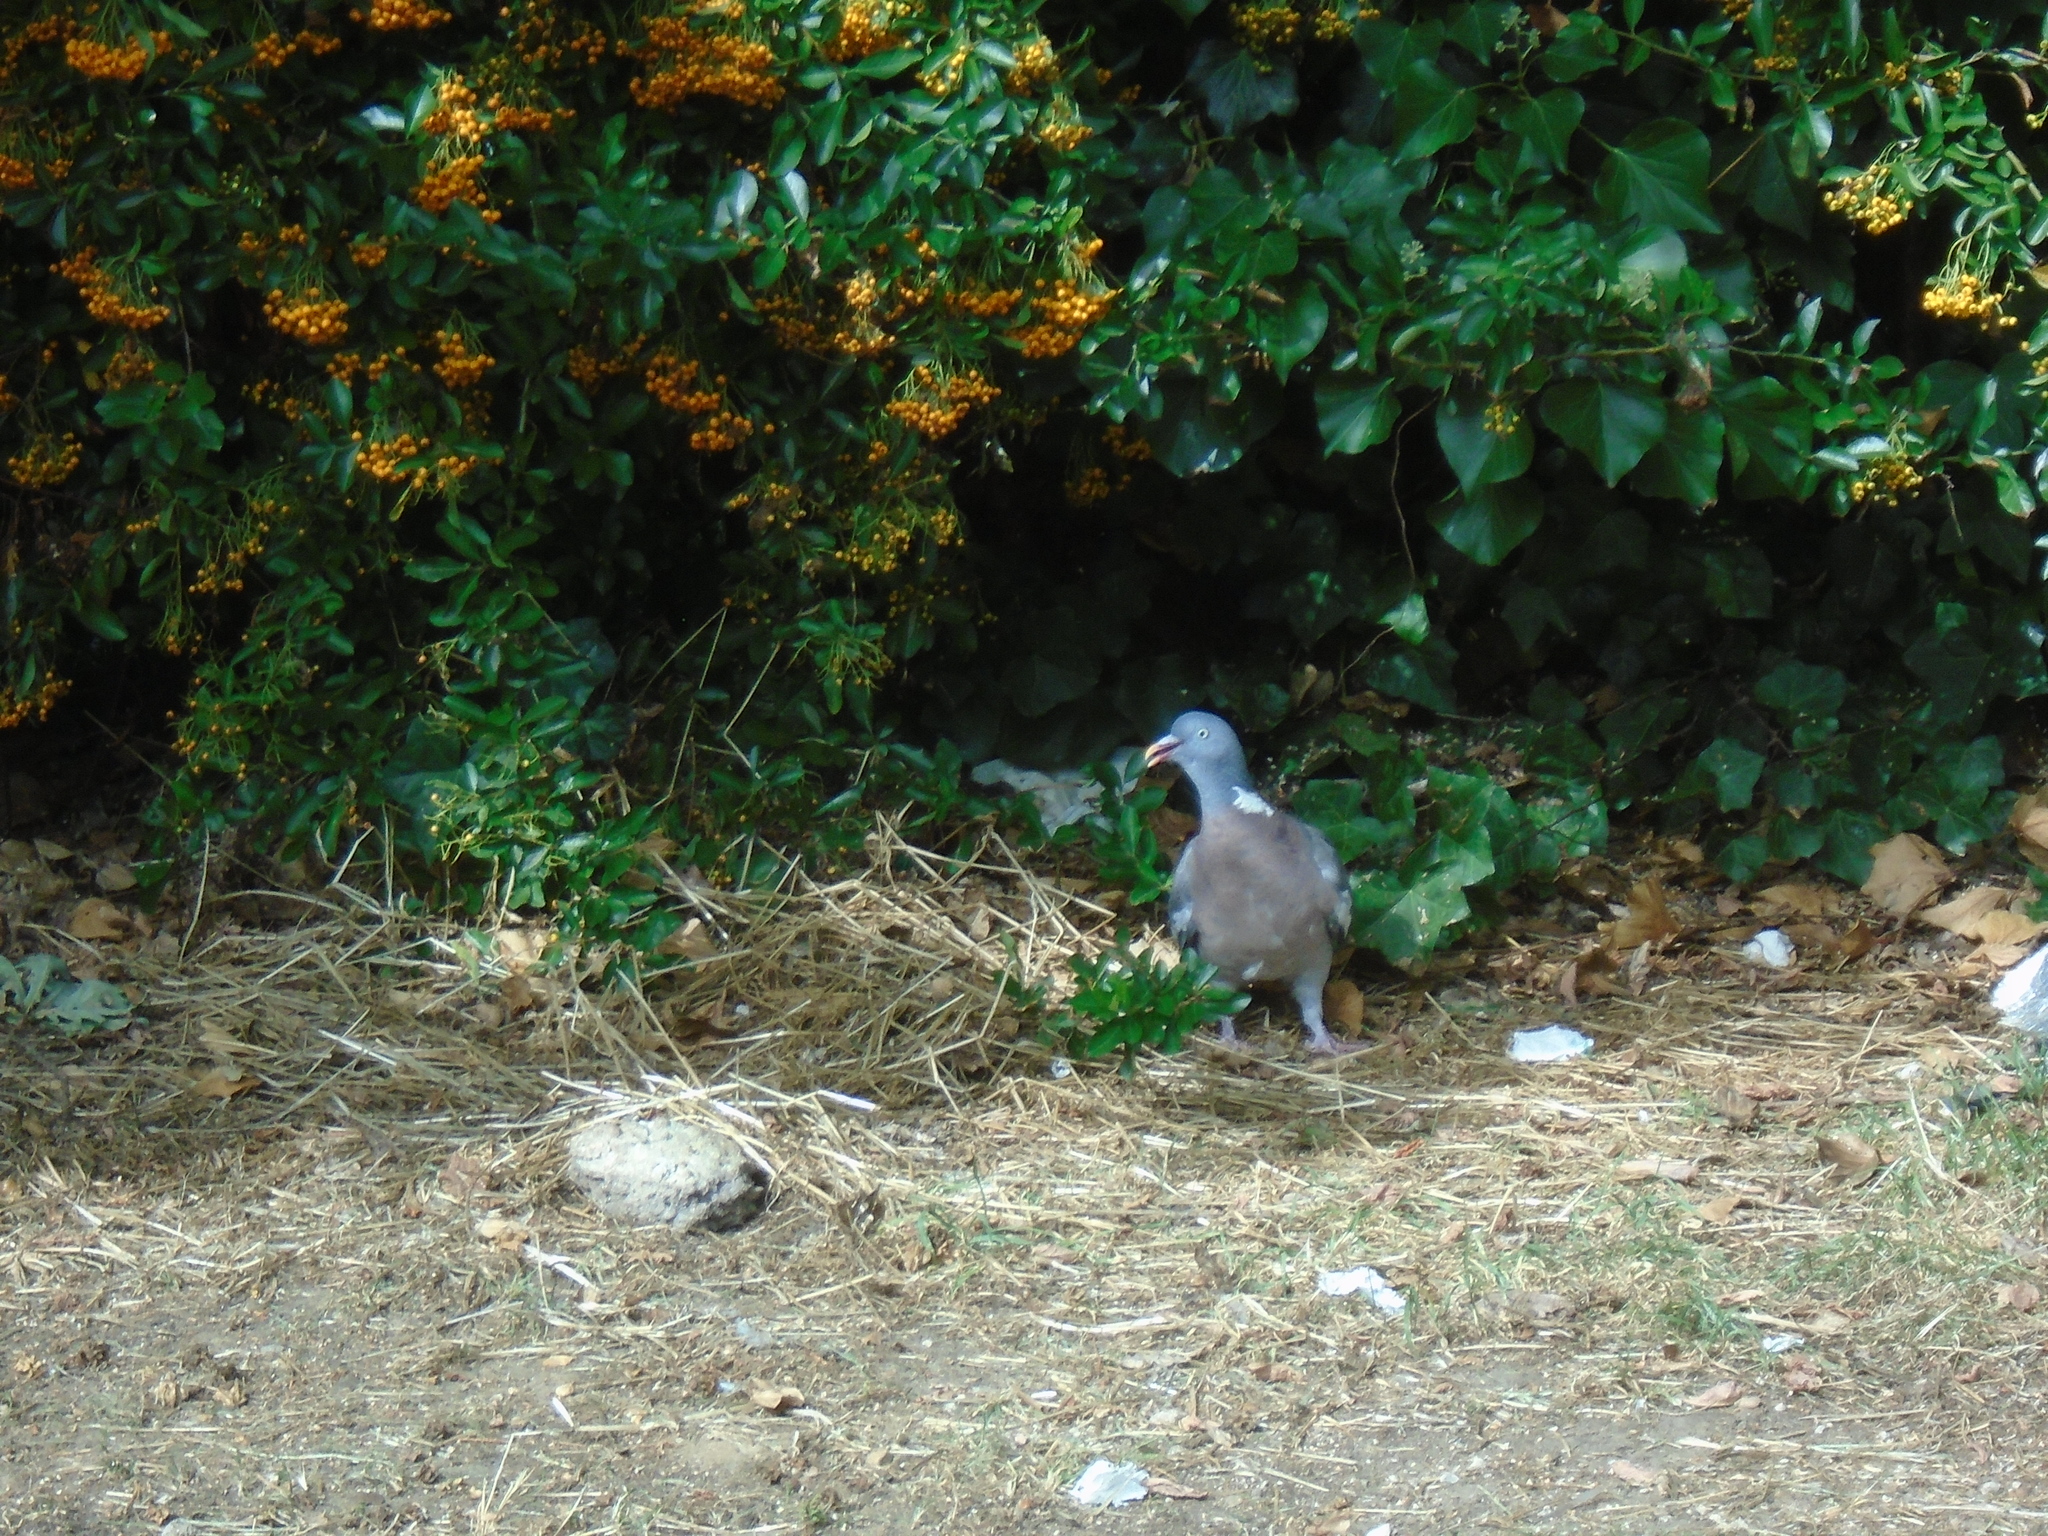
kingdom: Animalia
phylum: Chordata
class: Aves
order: Columbiformes
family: Columbidae
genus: Columba
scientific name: Columba palumbus
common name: Common wood pigeon
